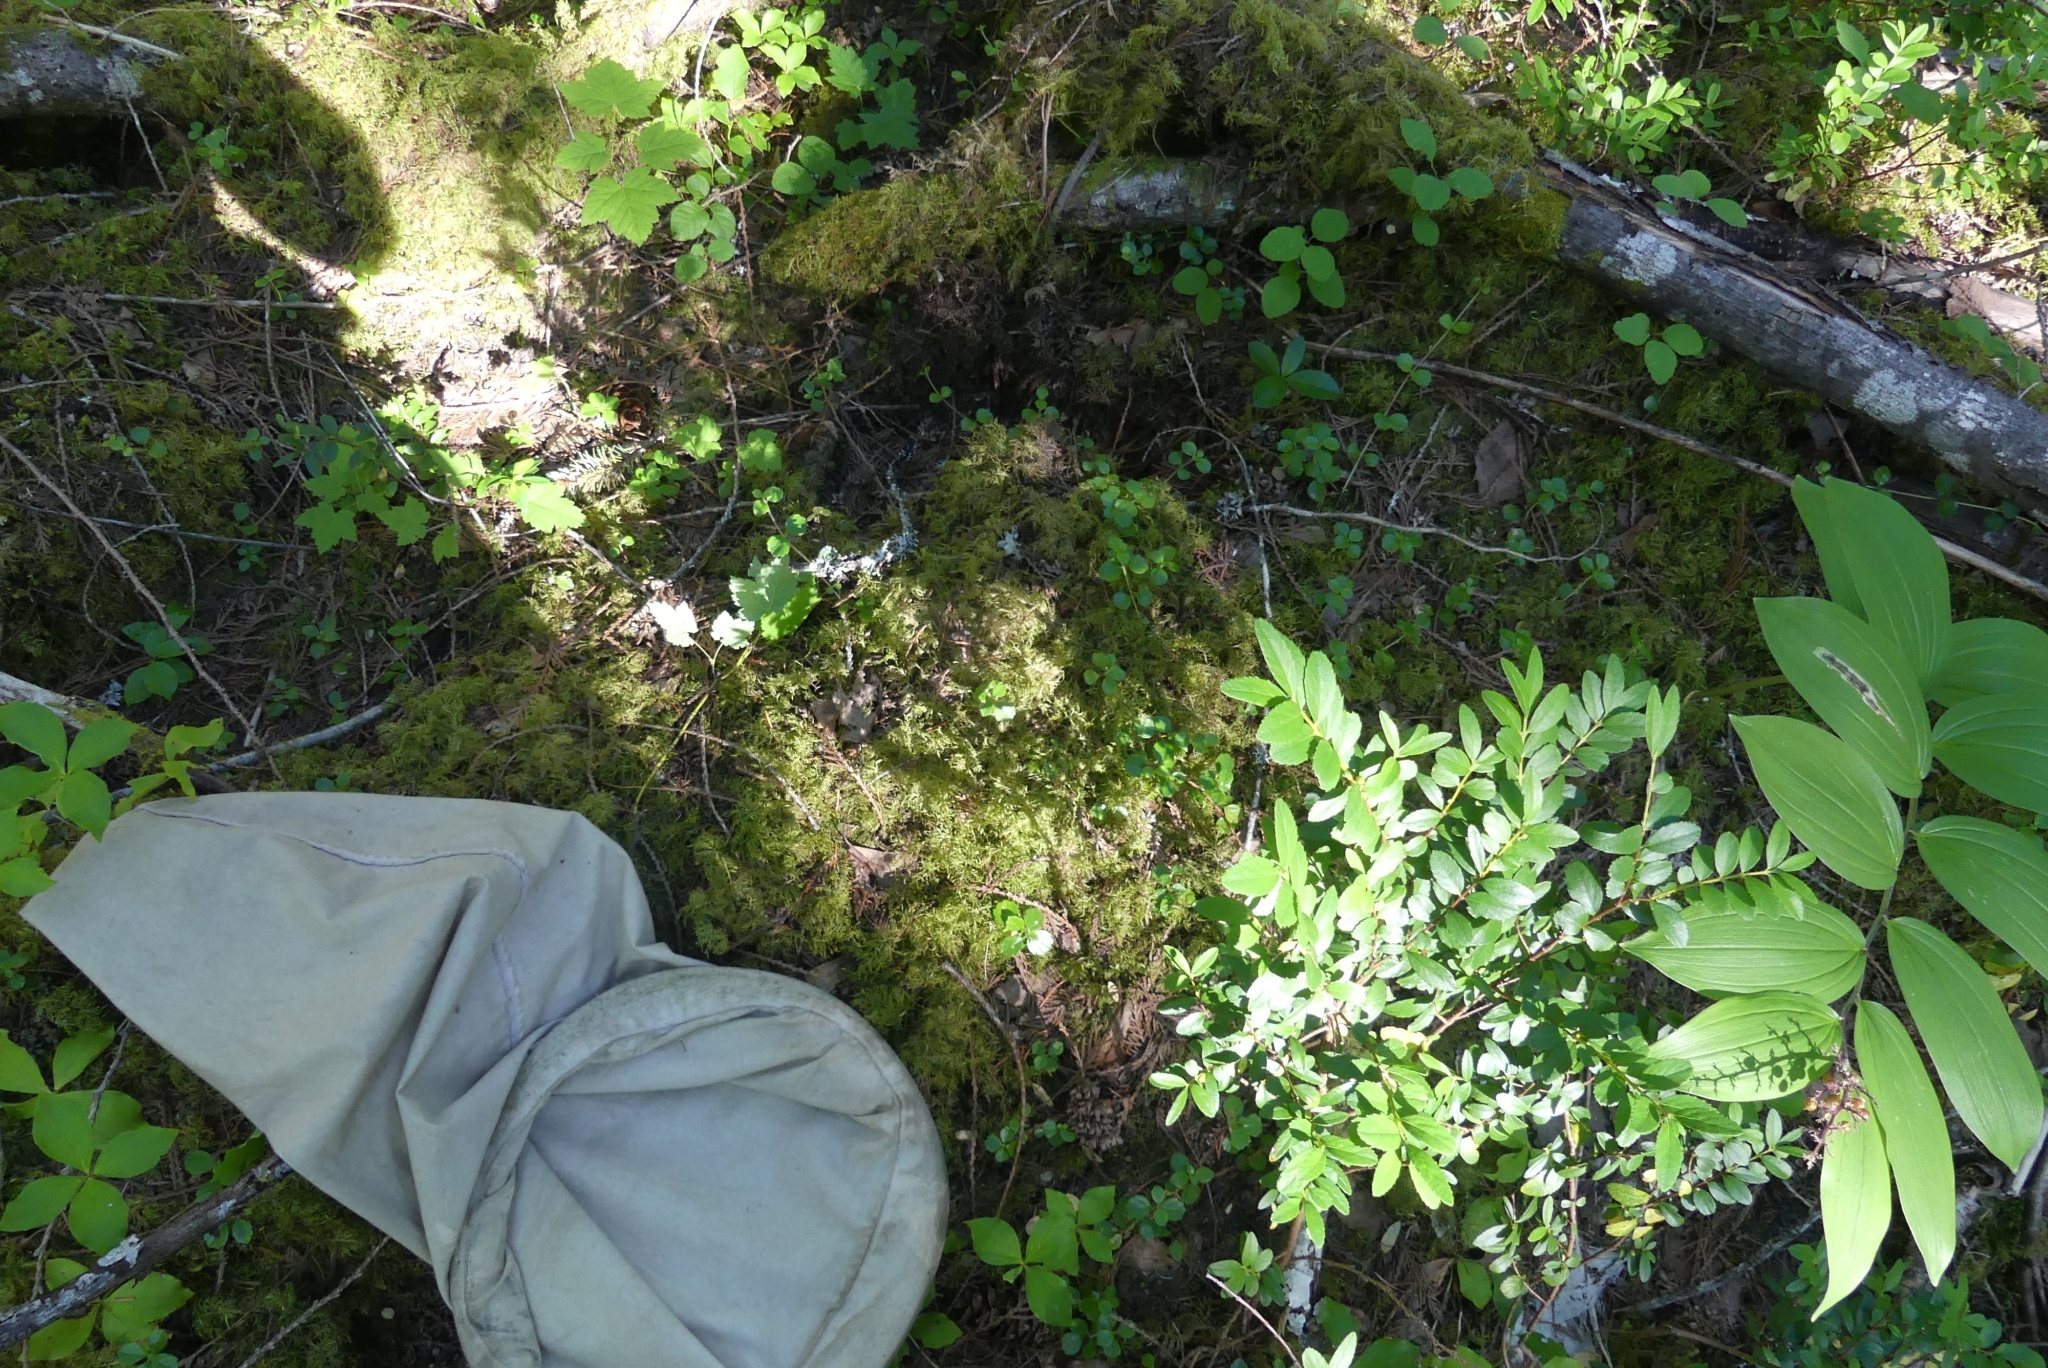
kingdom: Plantae
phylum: Bryophyta
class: Bryopsida
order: Hypnales
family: Hylocomiaceae
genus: Hylocomium
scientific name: Hylocomium splendens
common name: Stairstep moss
